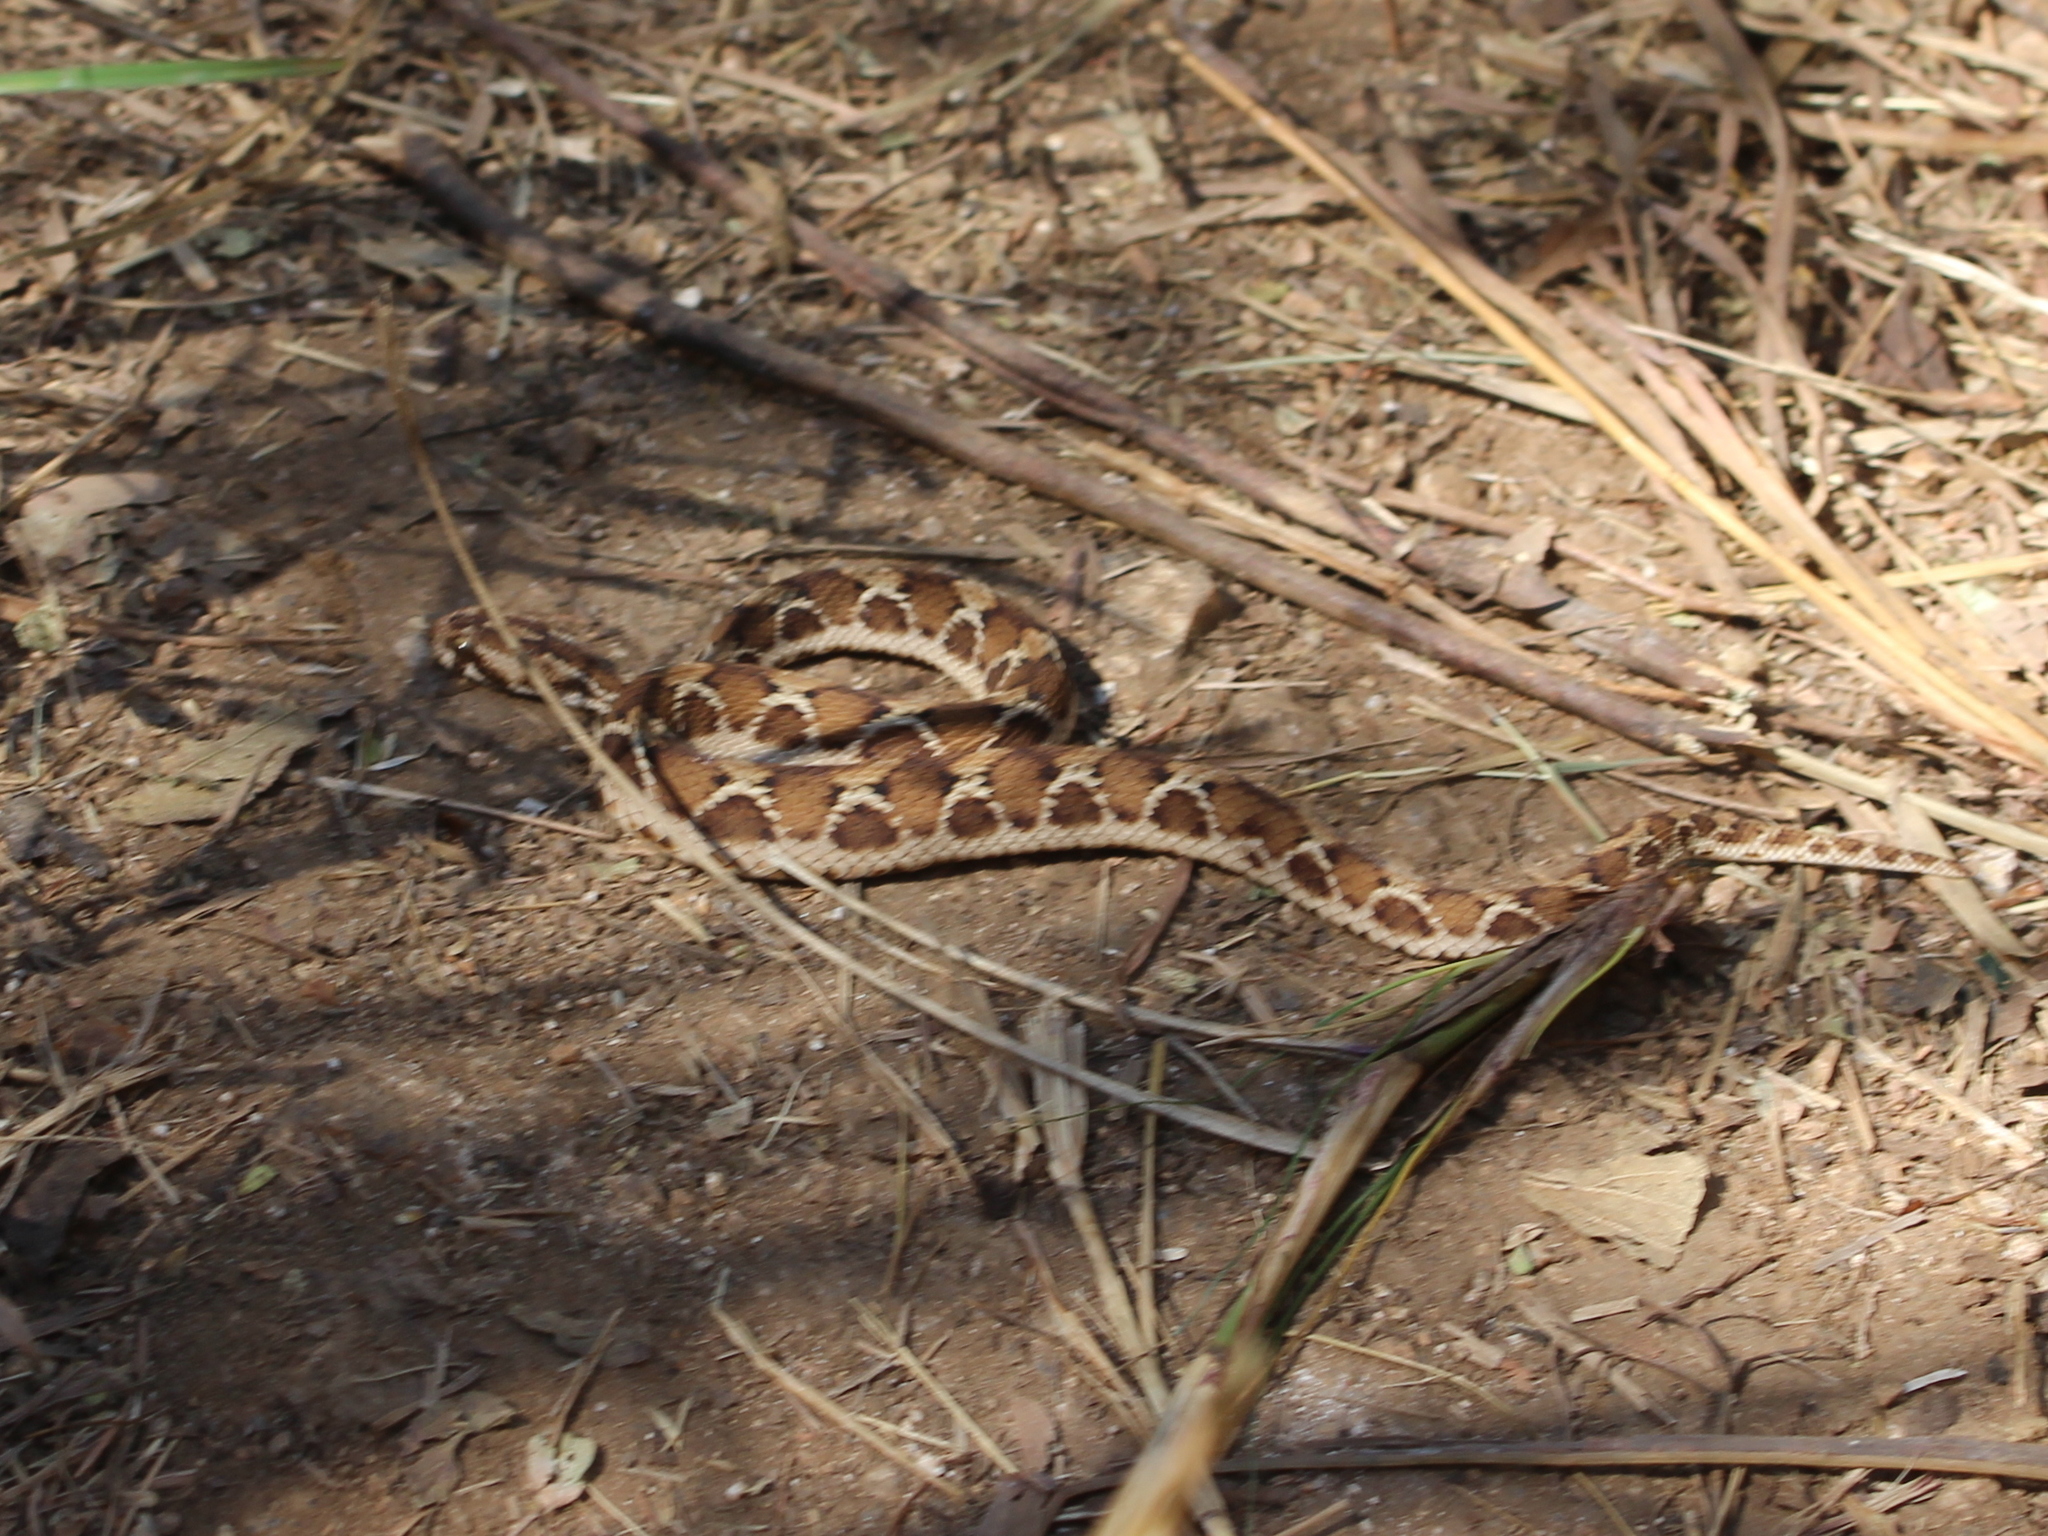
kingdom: Animalia
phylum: Chordata
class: Squamata
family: Viperidae
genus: Echis
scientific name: Echis carinatus
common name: Saw-scaled viper
